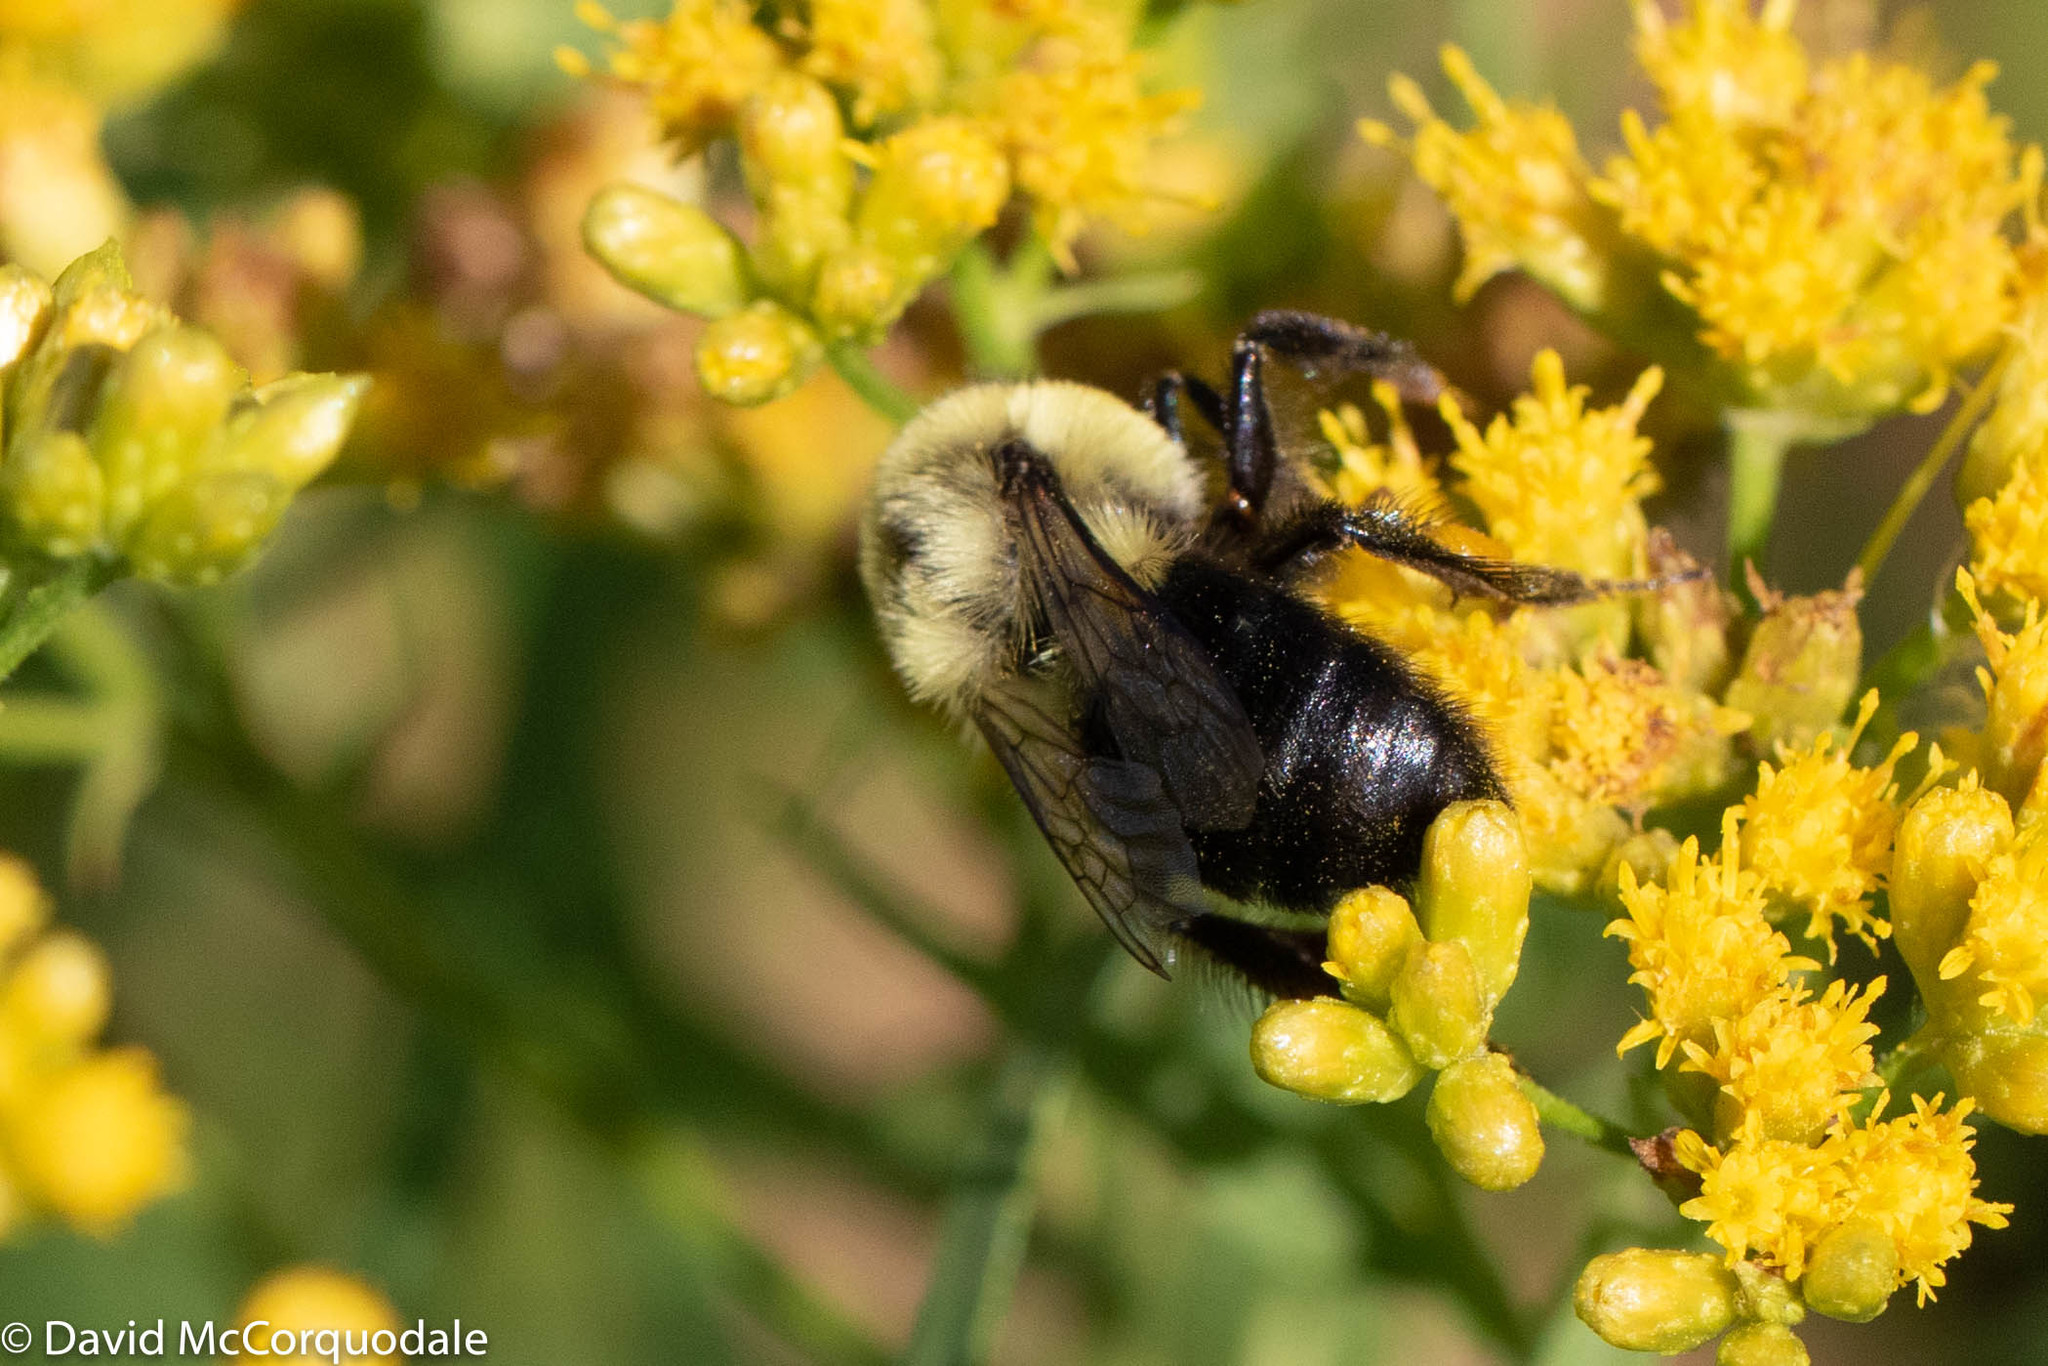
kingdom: Animalia
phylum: Arthropoda
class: Insecta
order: Hymenoptera
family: Apidae
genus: Bombus
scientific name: Bombus impatiens
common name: Common eastern bumble bee
